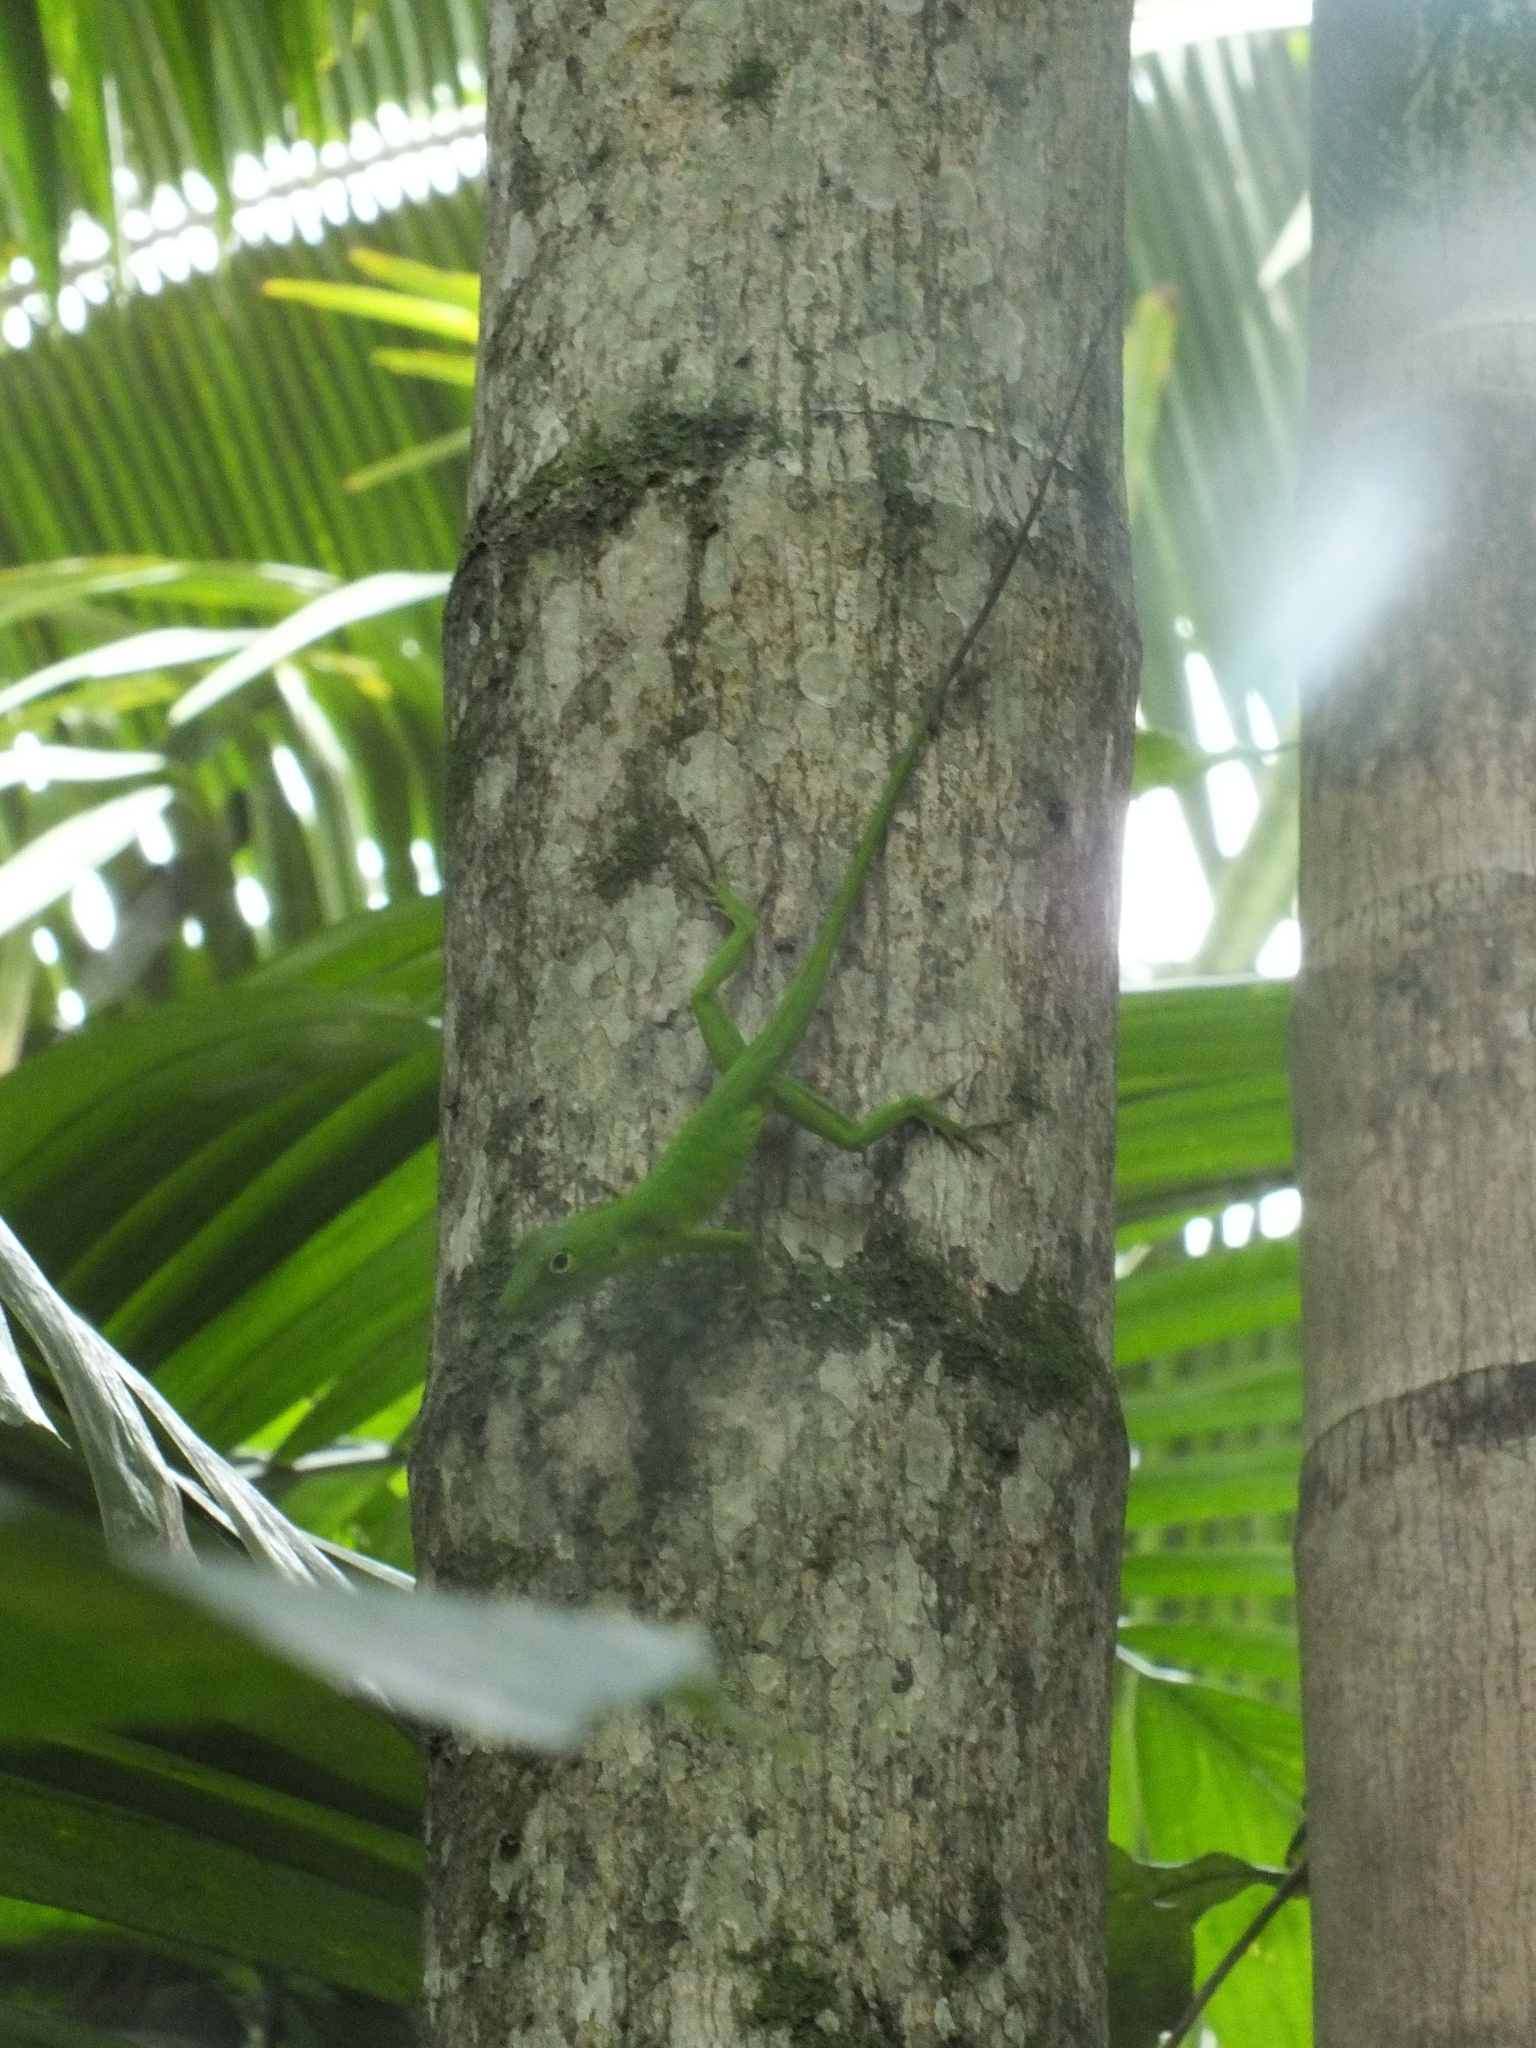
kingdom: Animalia
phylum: Chordata
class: Squamata
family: Dactyloidae
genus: Anolis
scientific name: Anolis garmani
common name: Jamaican giant anole
